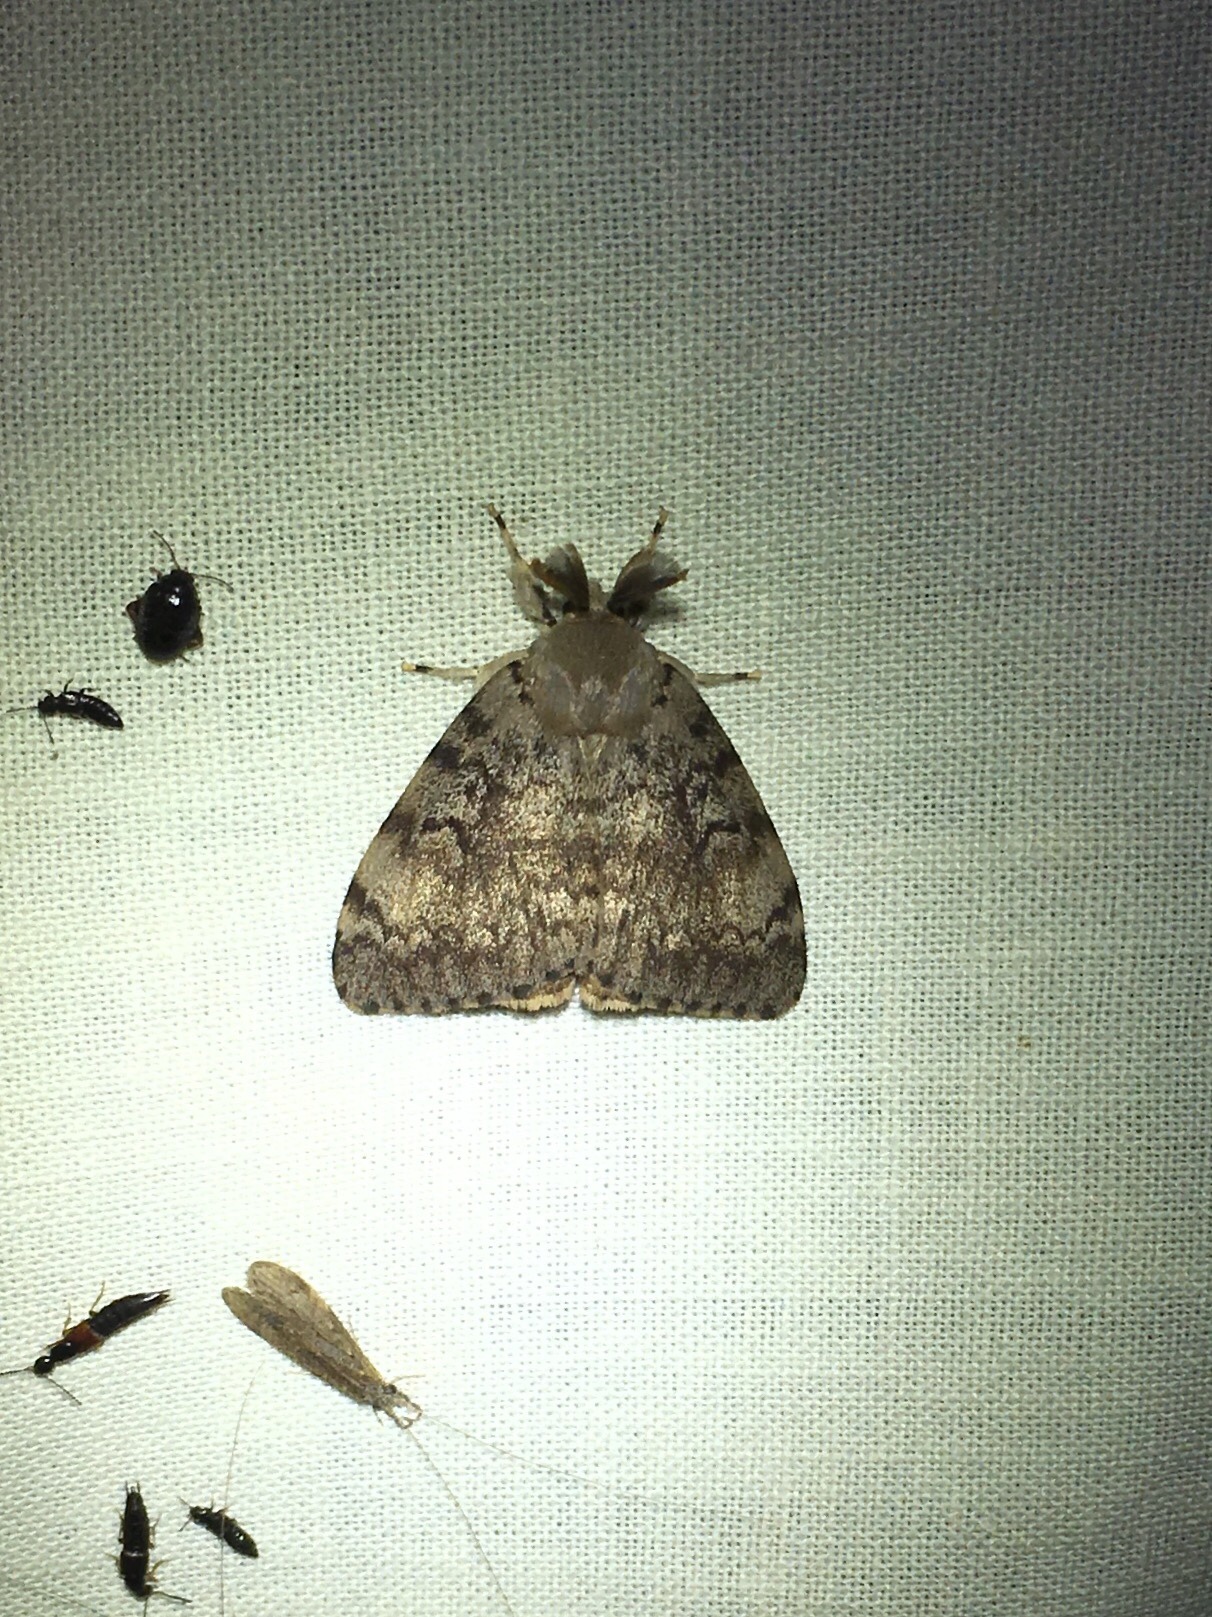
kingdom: Animalia
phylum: Arthropoda
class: Insecta
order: Lepidoptera
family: Erebidae
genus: Lymantria
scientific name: Lymantria dispar
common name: Gypsy moth
